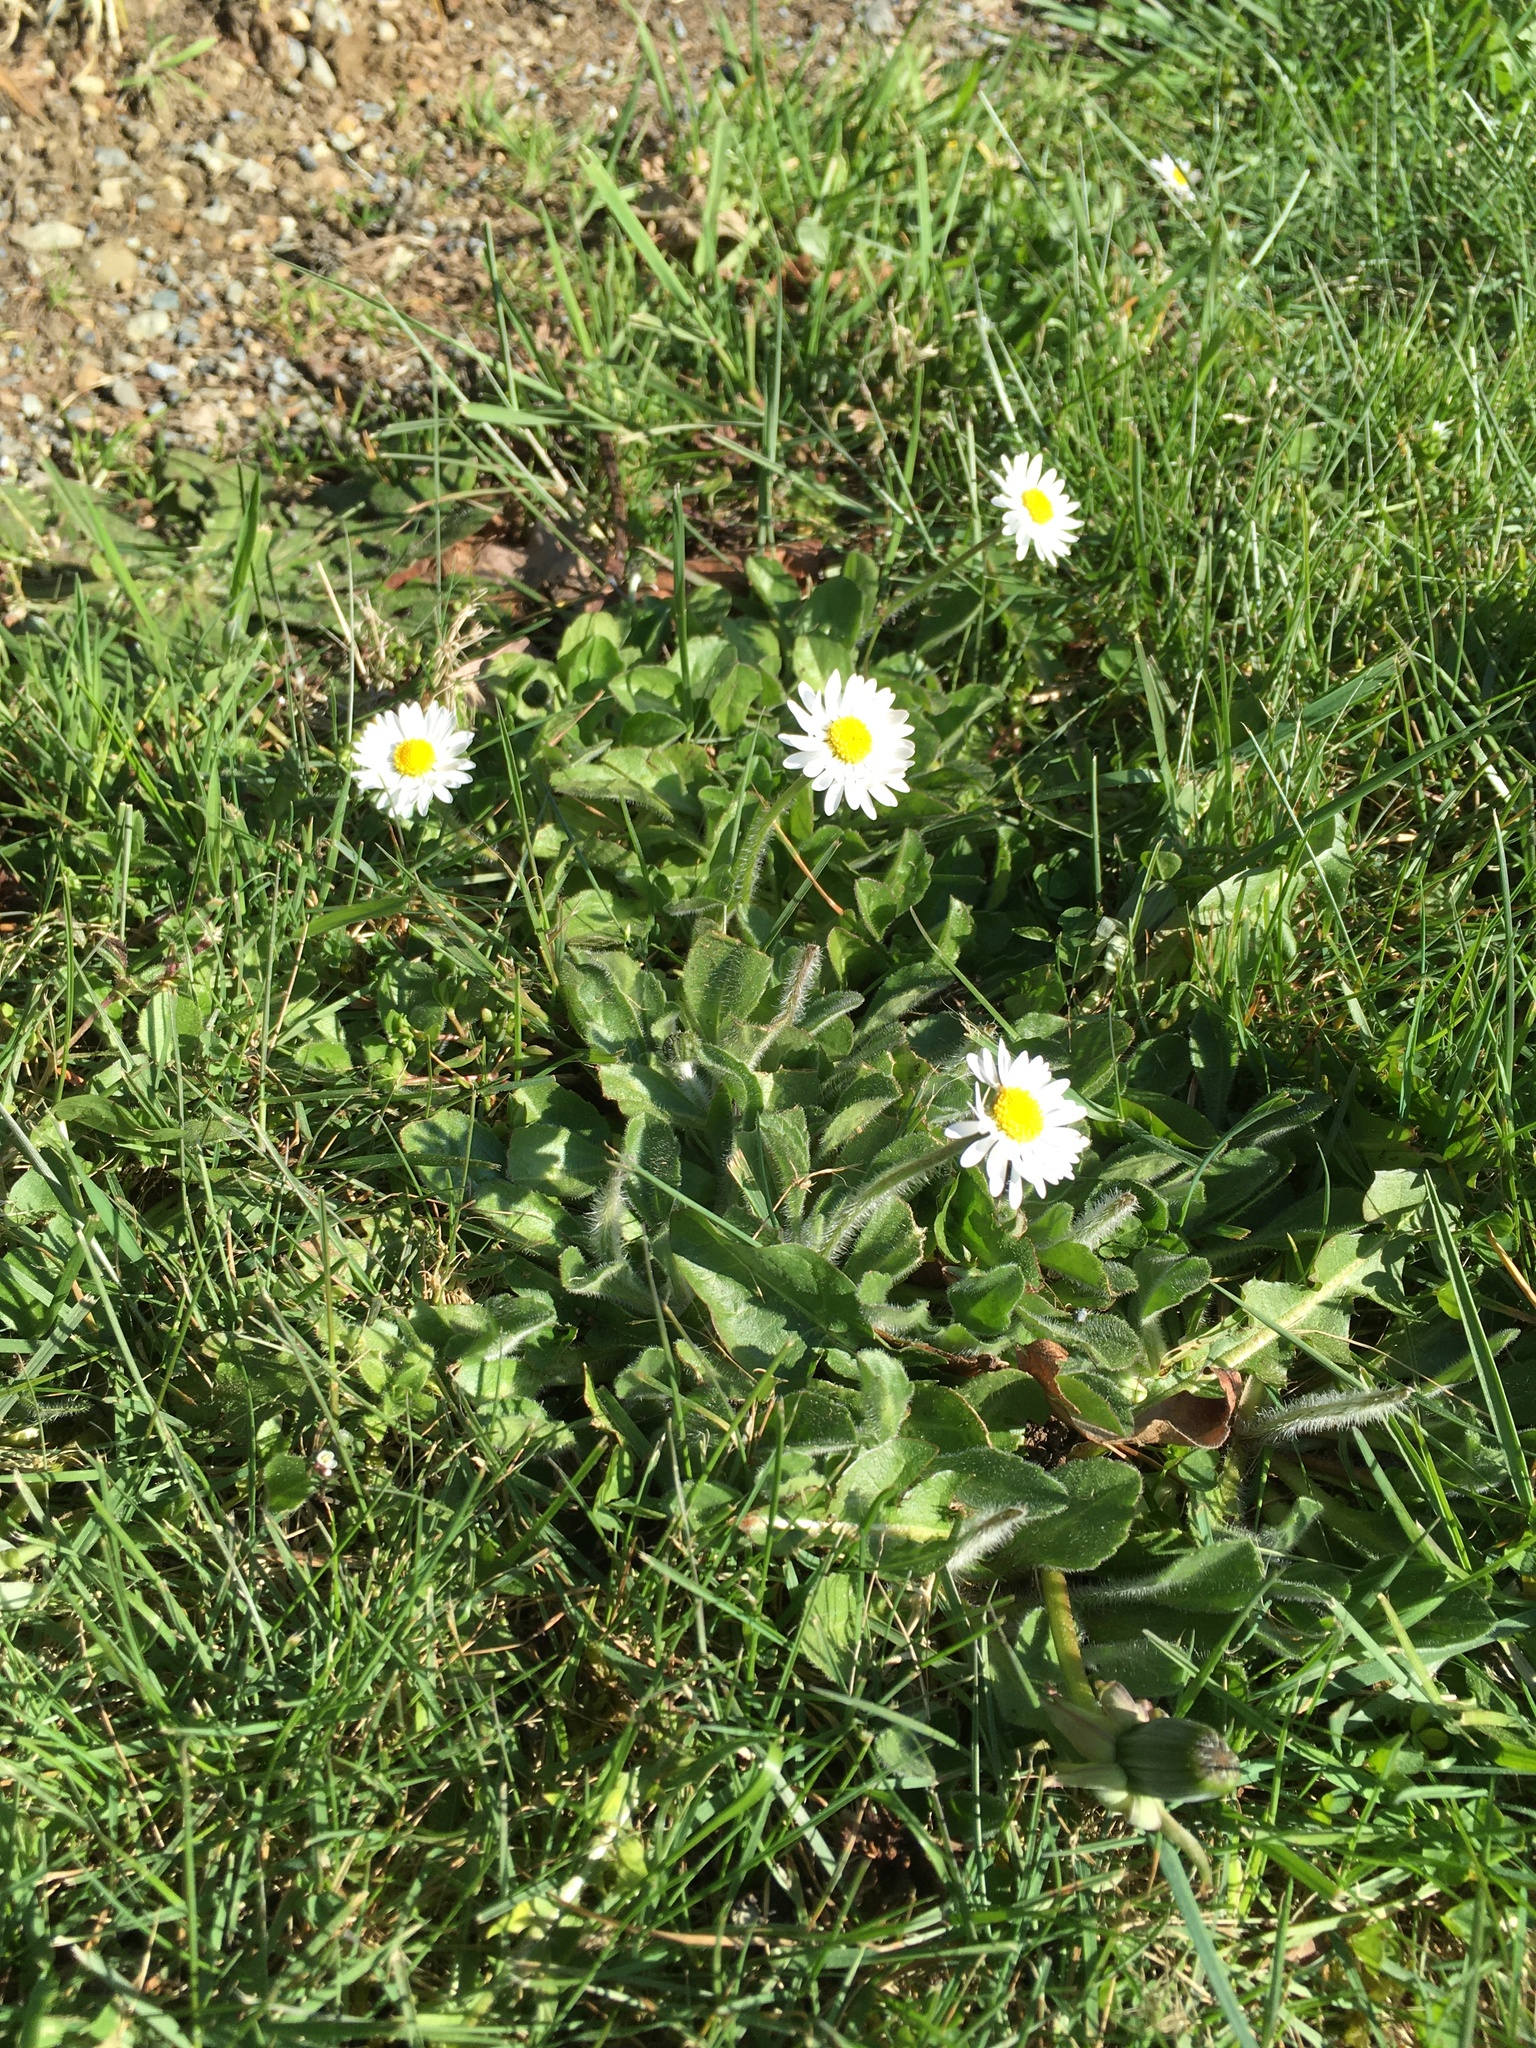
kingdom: Plantae
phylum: Tracheophyta
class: Magnoliopsida
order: Asterales
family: Asteraceae
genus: Bellis
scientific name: Bellis perennis
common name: Lawndaisy
